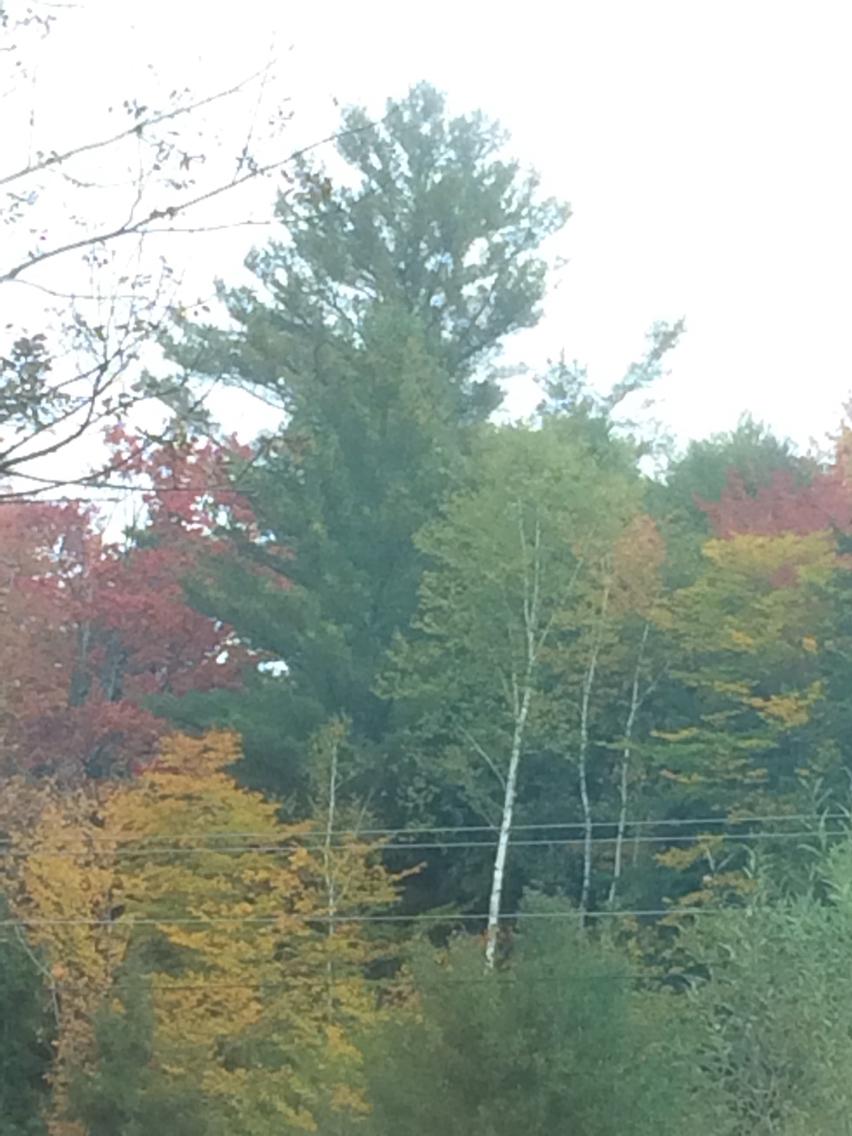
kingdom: Plantae
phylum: Tracheophyta
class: Pinopsida
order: Pinales
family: Pinaceae
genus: Pinus
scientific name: Pinus strobus
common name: Weymouth pine
